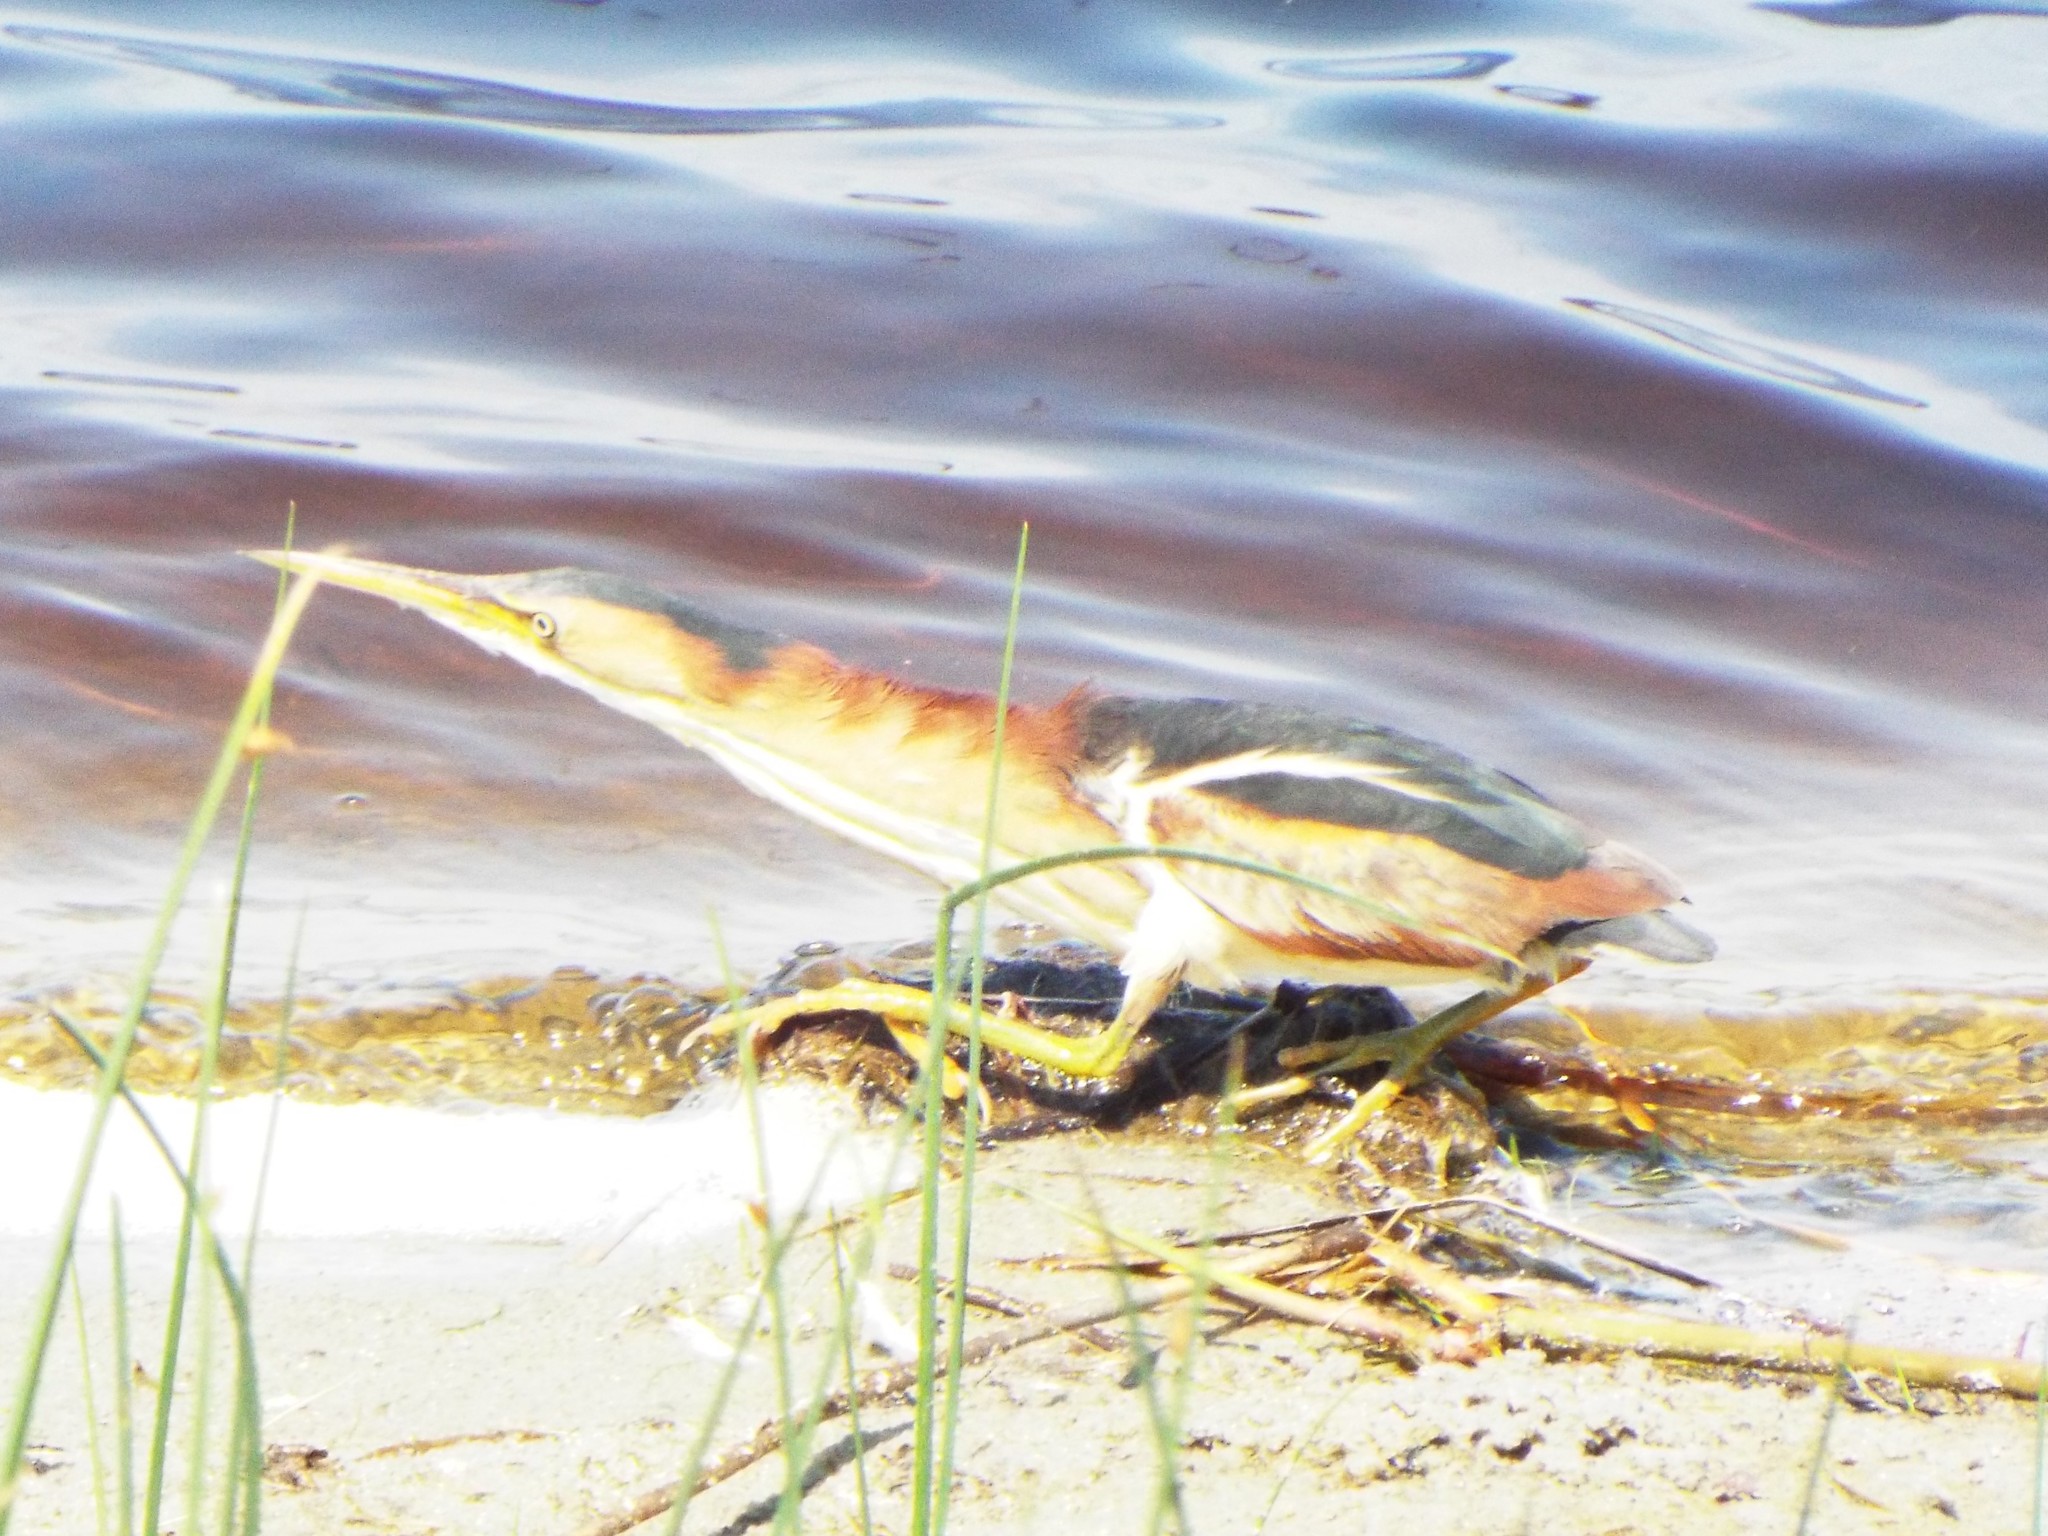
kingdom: Animalia
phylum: Chordata
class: Aves
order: Pelecaniformes
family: Ardeidae
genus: Ixobrychus
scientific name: Ixobrychus exilis
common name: Least bittern
